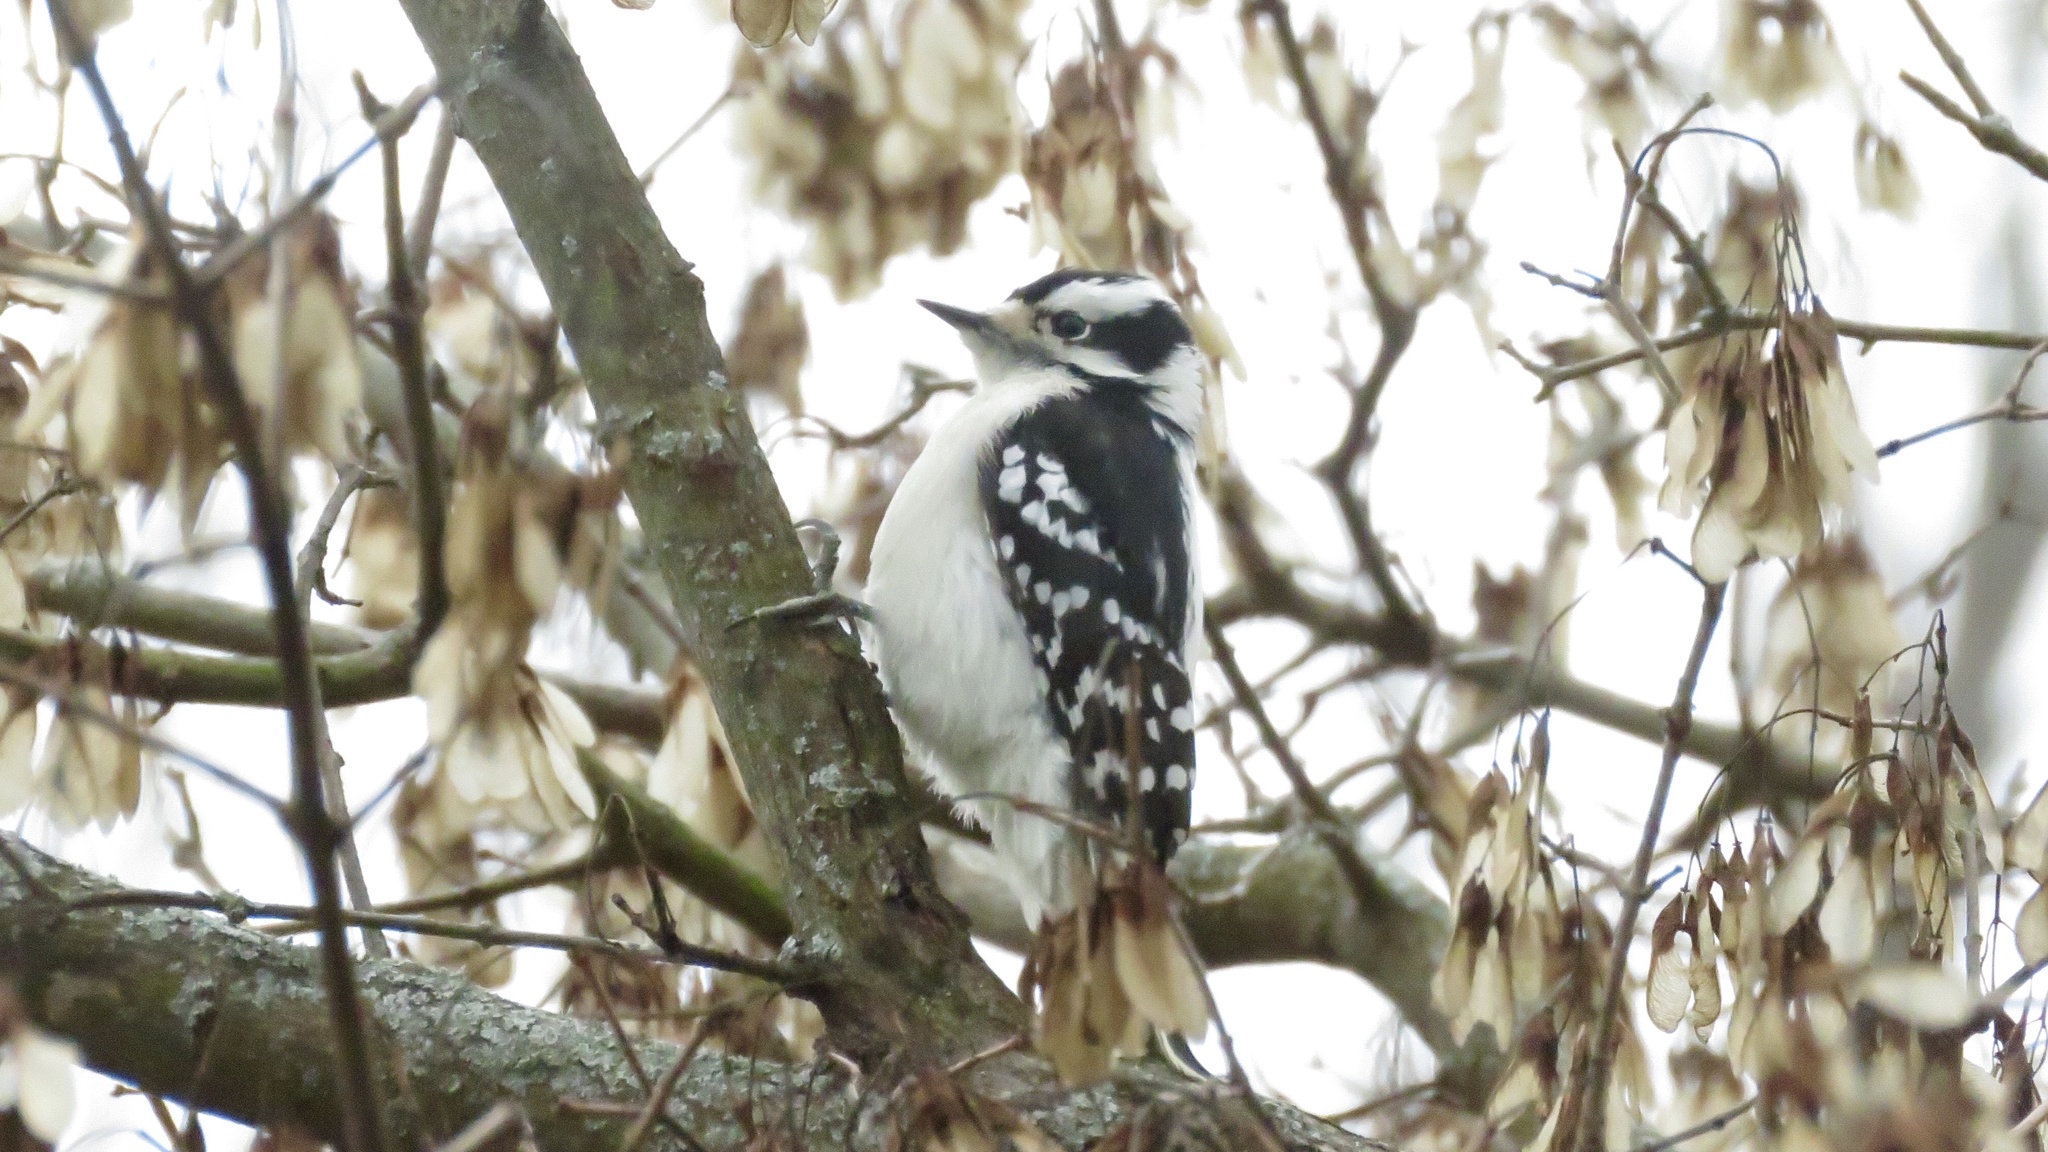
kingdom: Animalia
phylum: Chordata
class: Aves
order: Piciformes
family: Picidae
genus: Dryobates
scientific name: Dryobates pubescens
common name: Downy woodpecker
